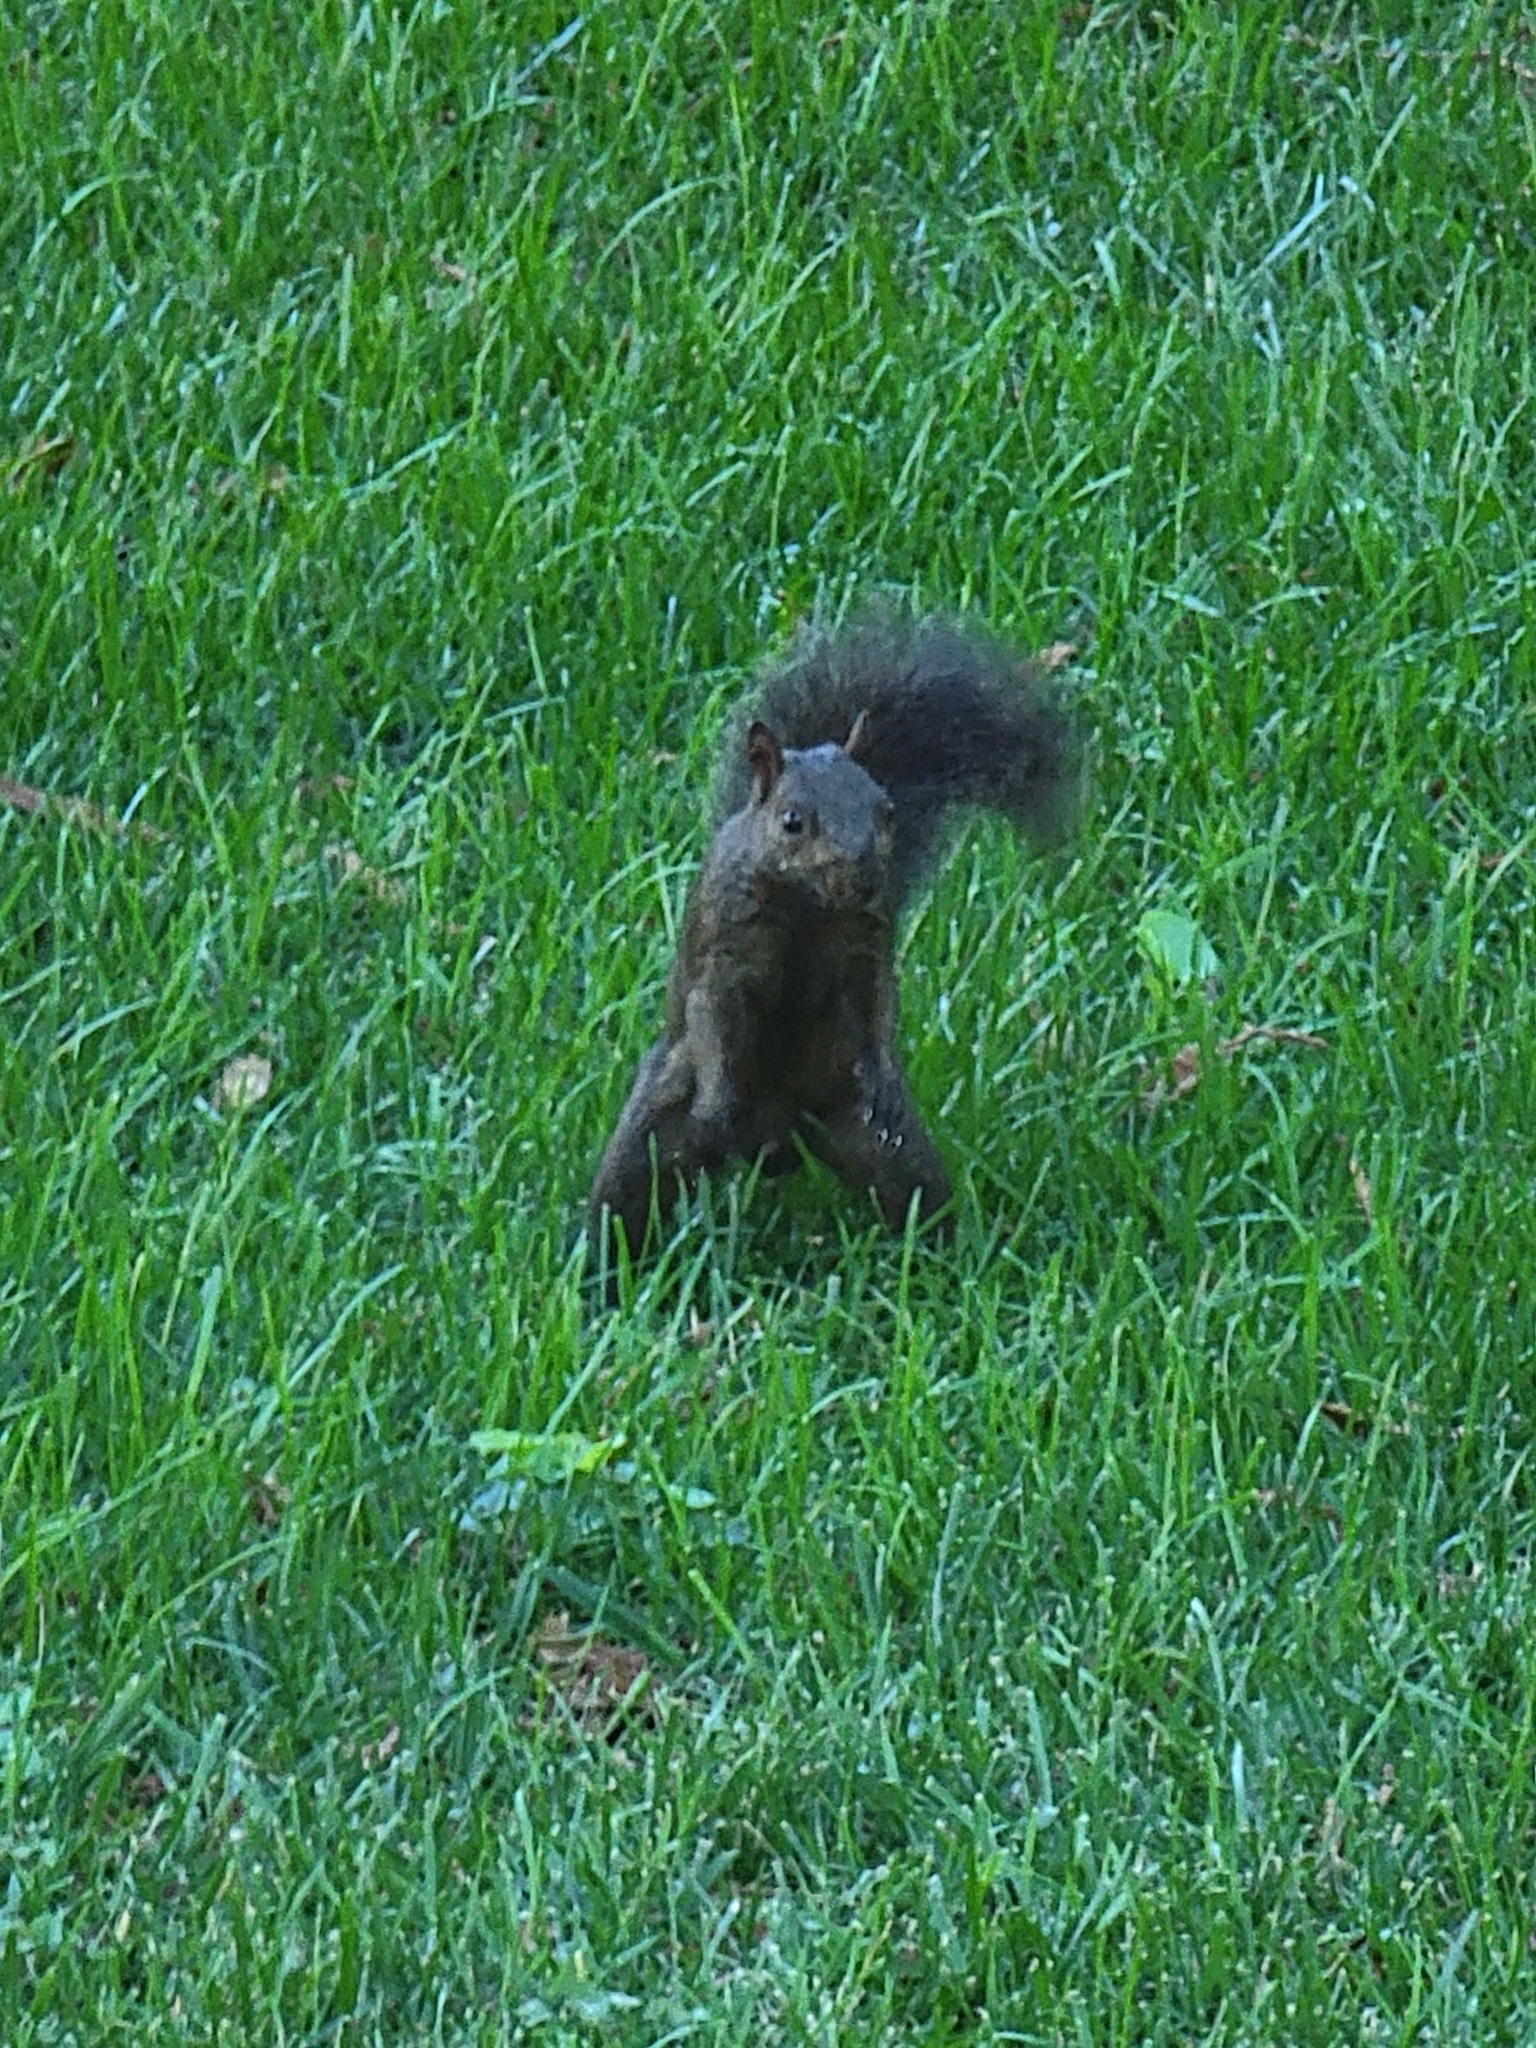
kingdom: Animalia
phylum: Chordata
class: Mammalia
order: Rodentia
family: Sciuridae
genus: Sciurus
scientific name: Sciurus carolinensis
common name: Eastern gray squirrel
